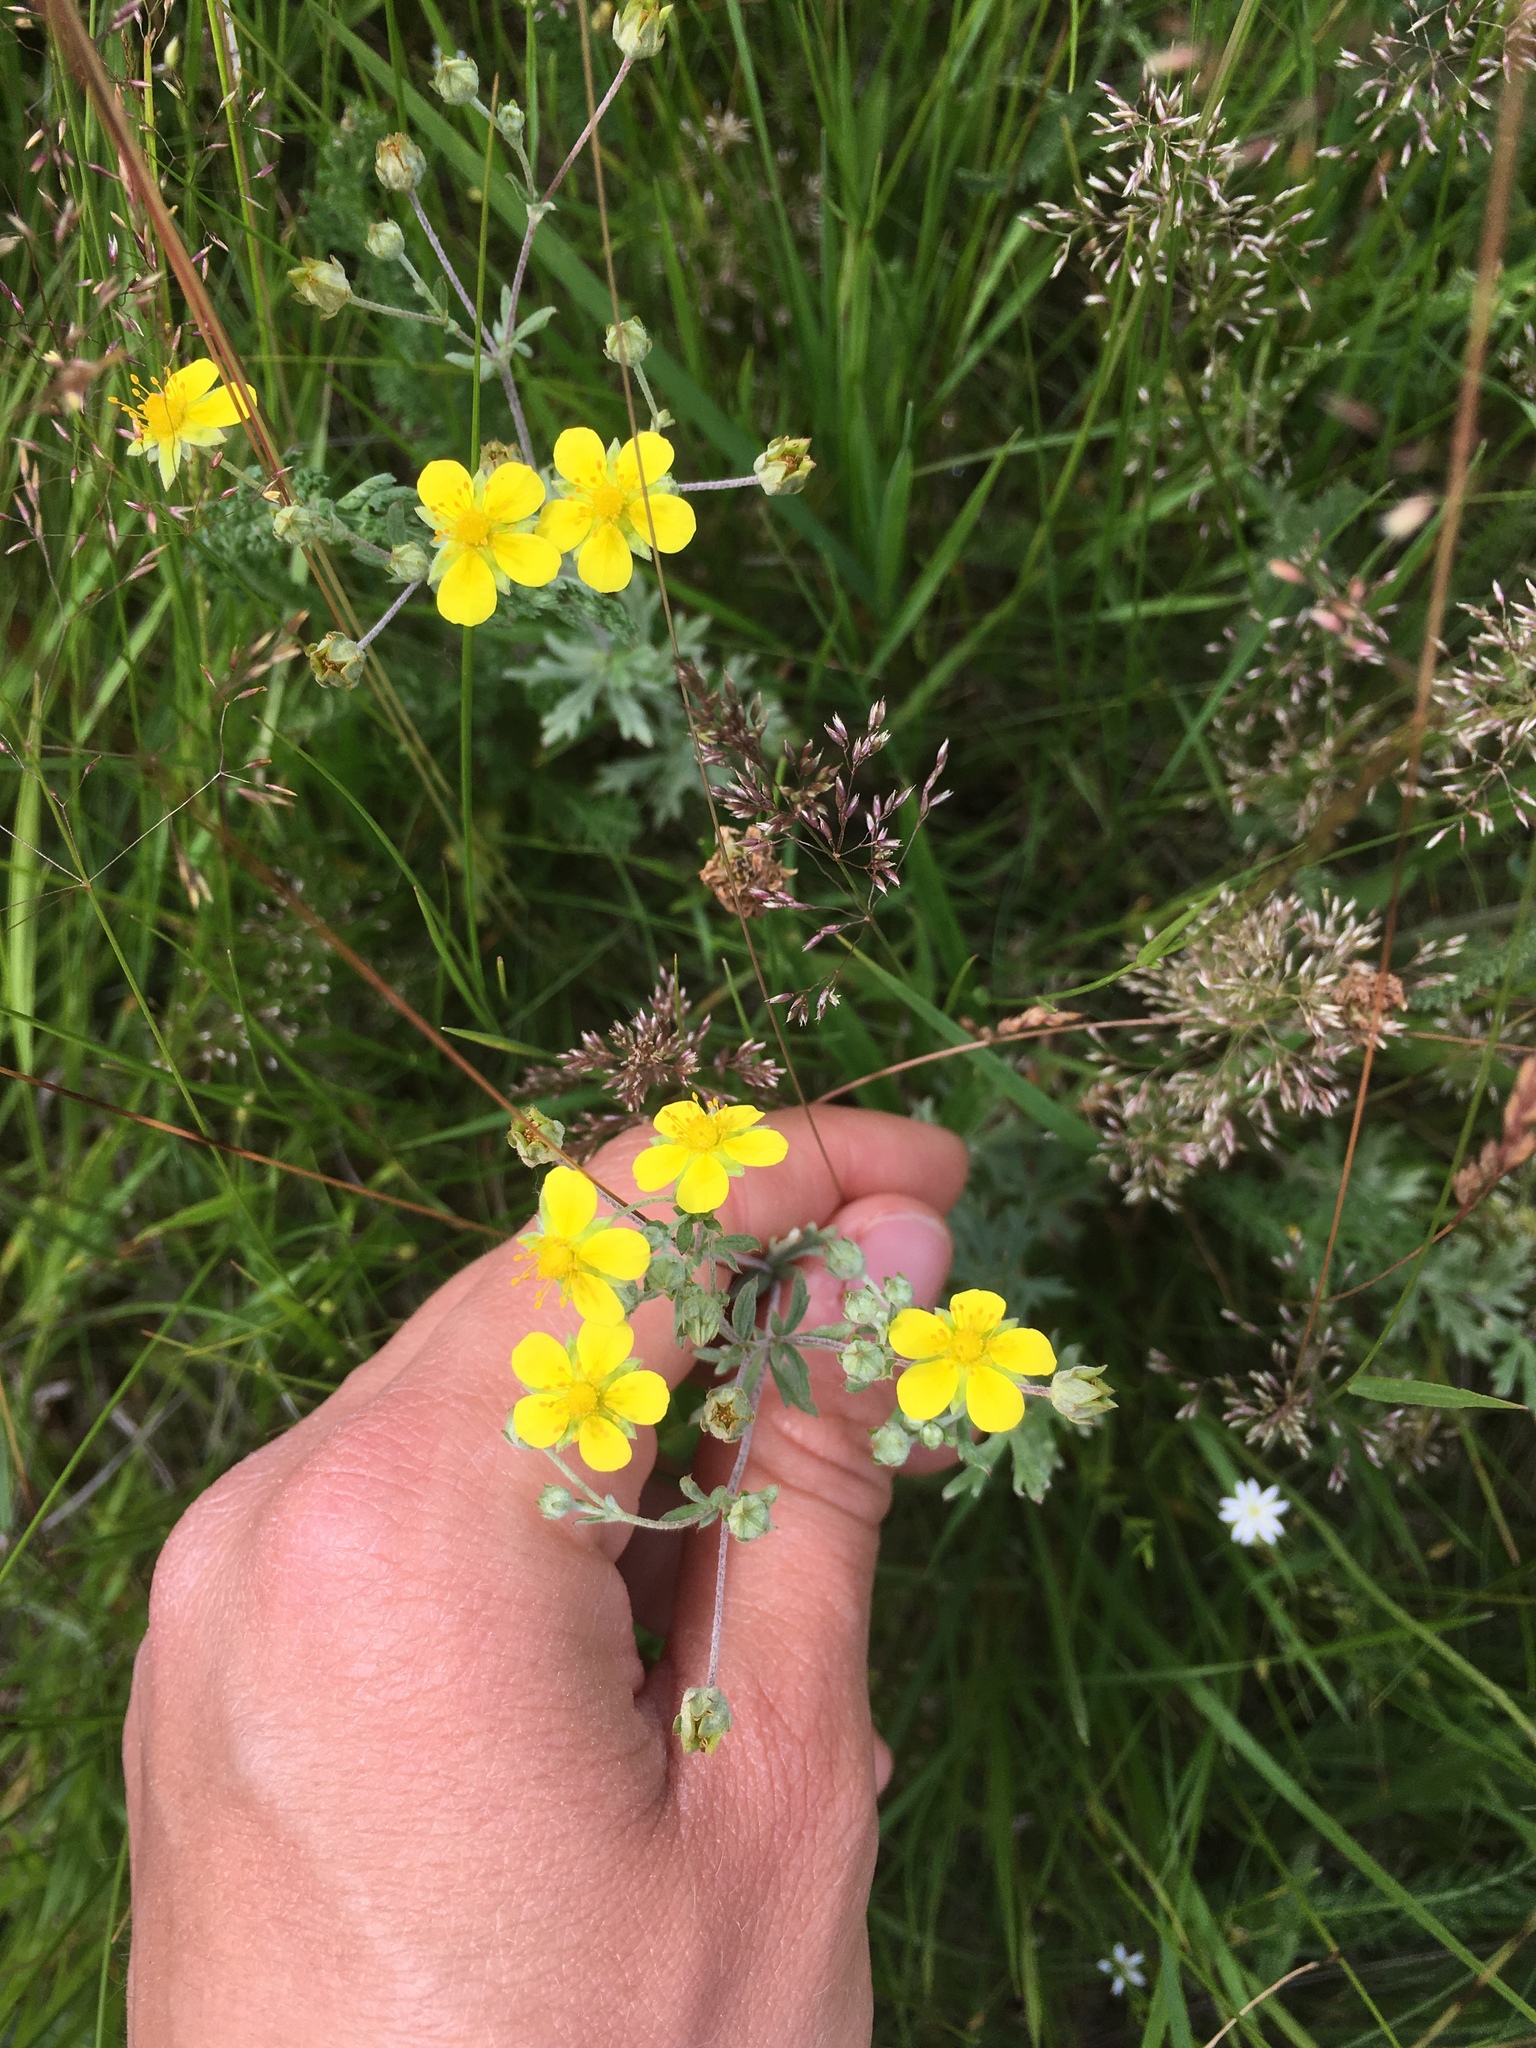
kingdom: Plantae
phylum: Tracheophyta
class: Magnoliopsida
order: Rosales
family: Rosaceae
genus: Potentilla
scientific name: Potentilla argentea
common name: Hoary cinquefoil
